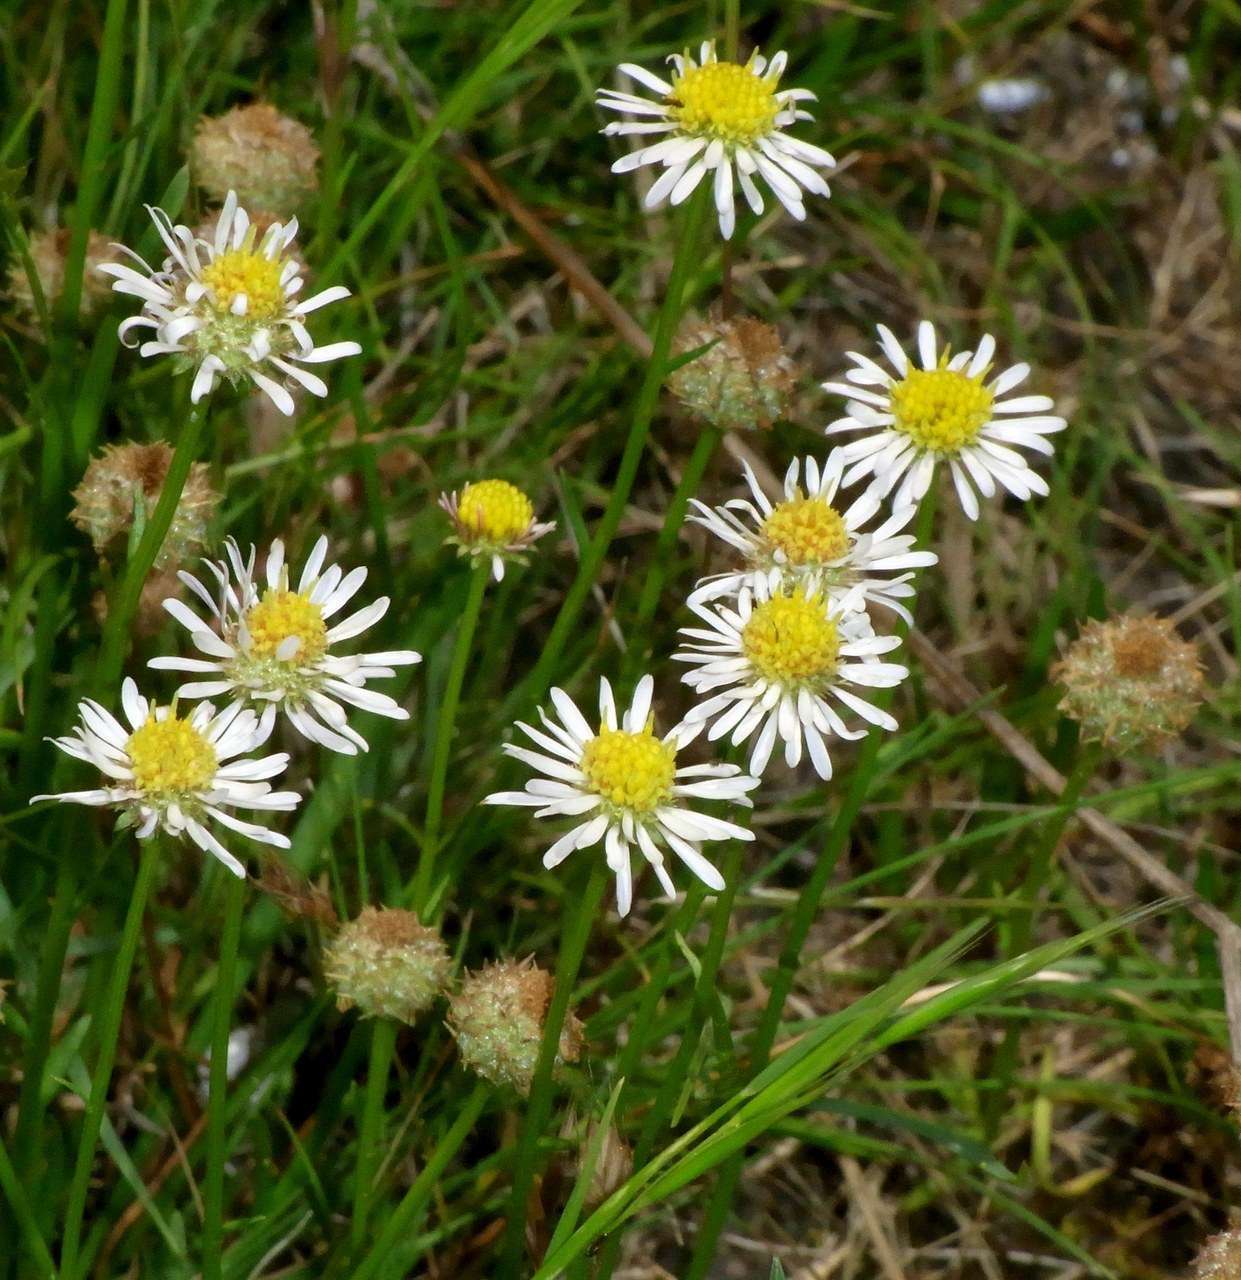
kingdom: Plantae
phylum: Tracheophyta
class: Magnoliopsida
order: Asterales
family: Asteraceae
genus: Calotis
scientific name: Calotis scapigera
